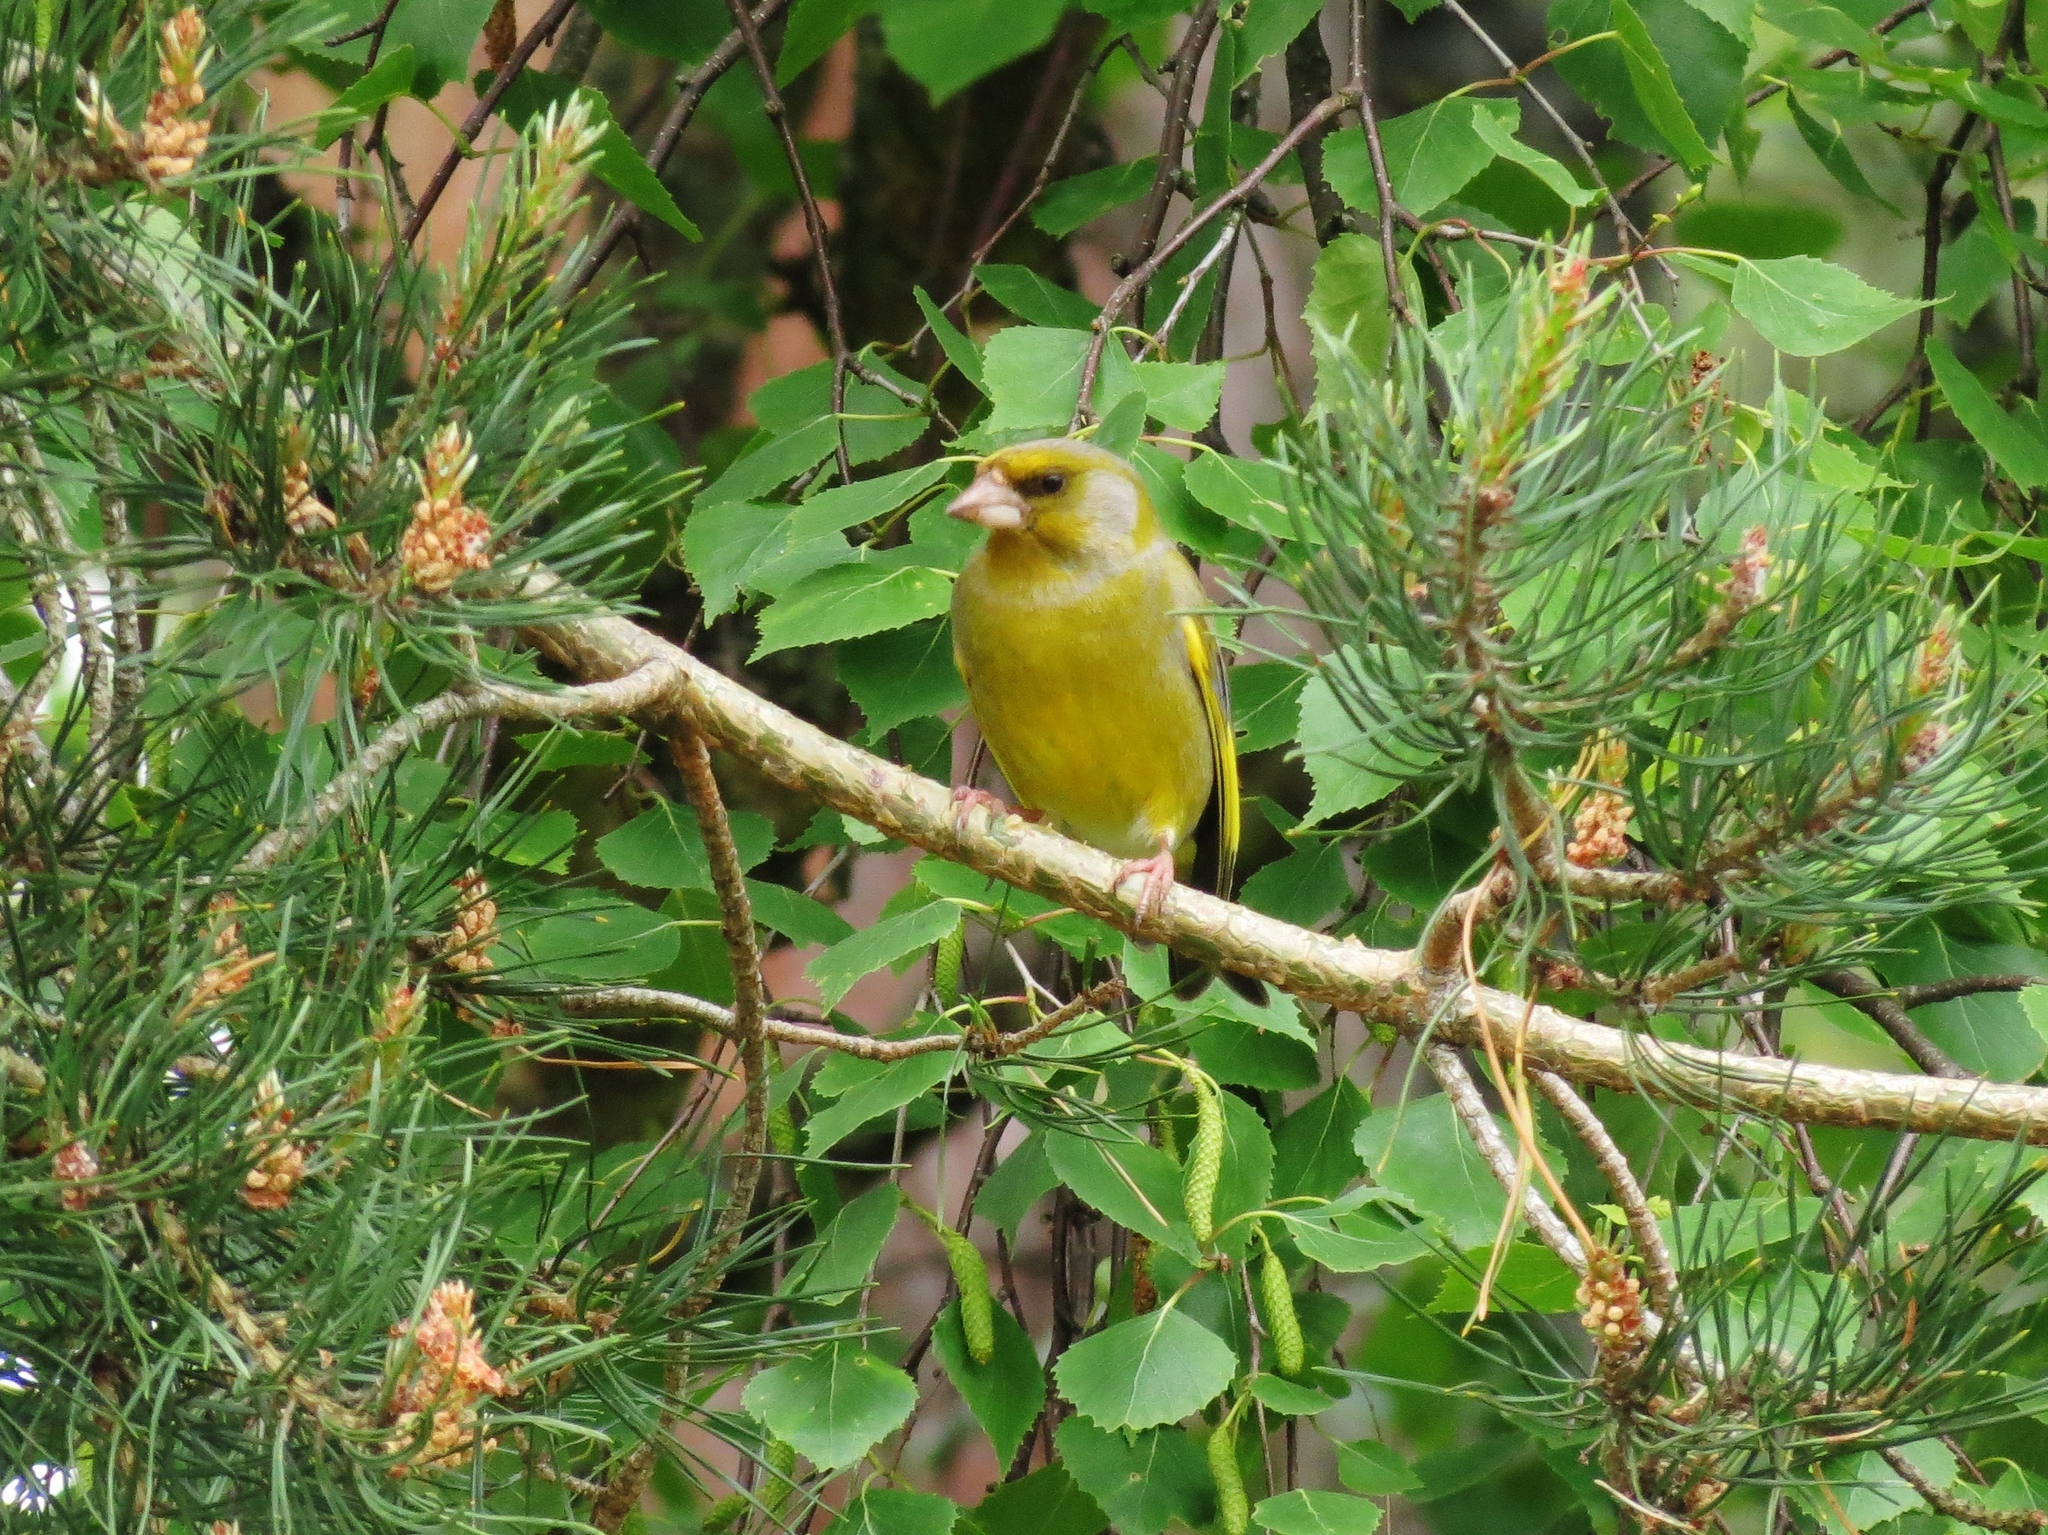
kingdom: Plantae
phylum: Tracheophyta
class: Liliopsida
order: Poales
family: Poaceae
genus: Chloris
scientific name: Chloris chloris
